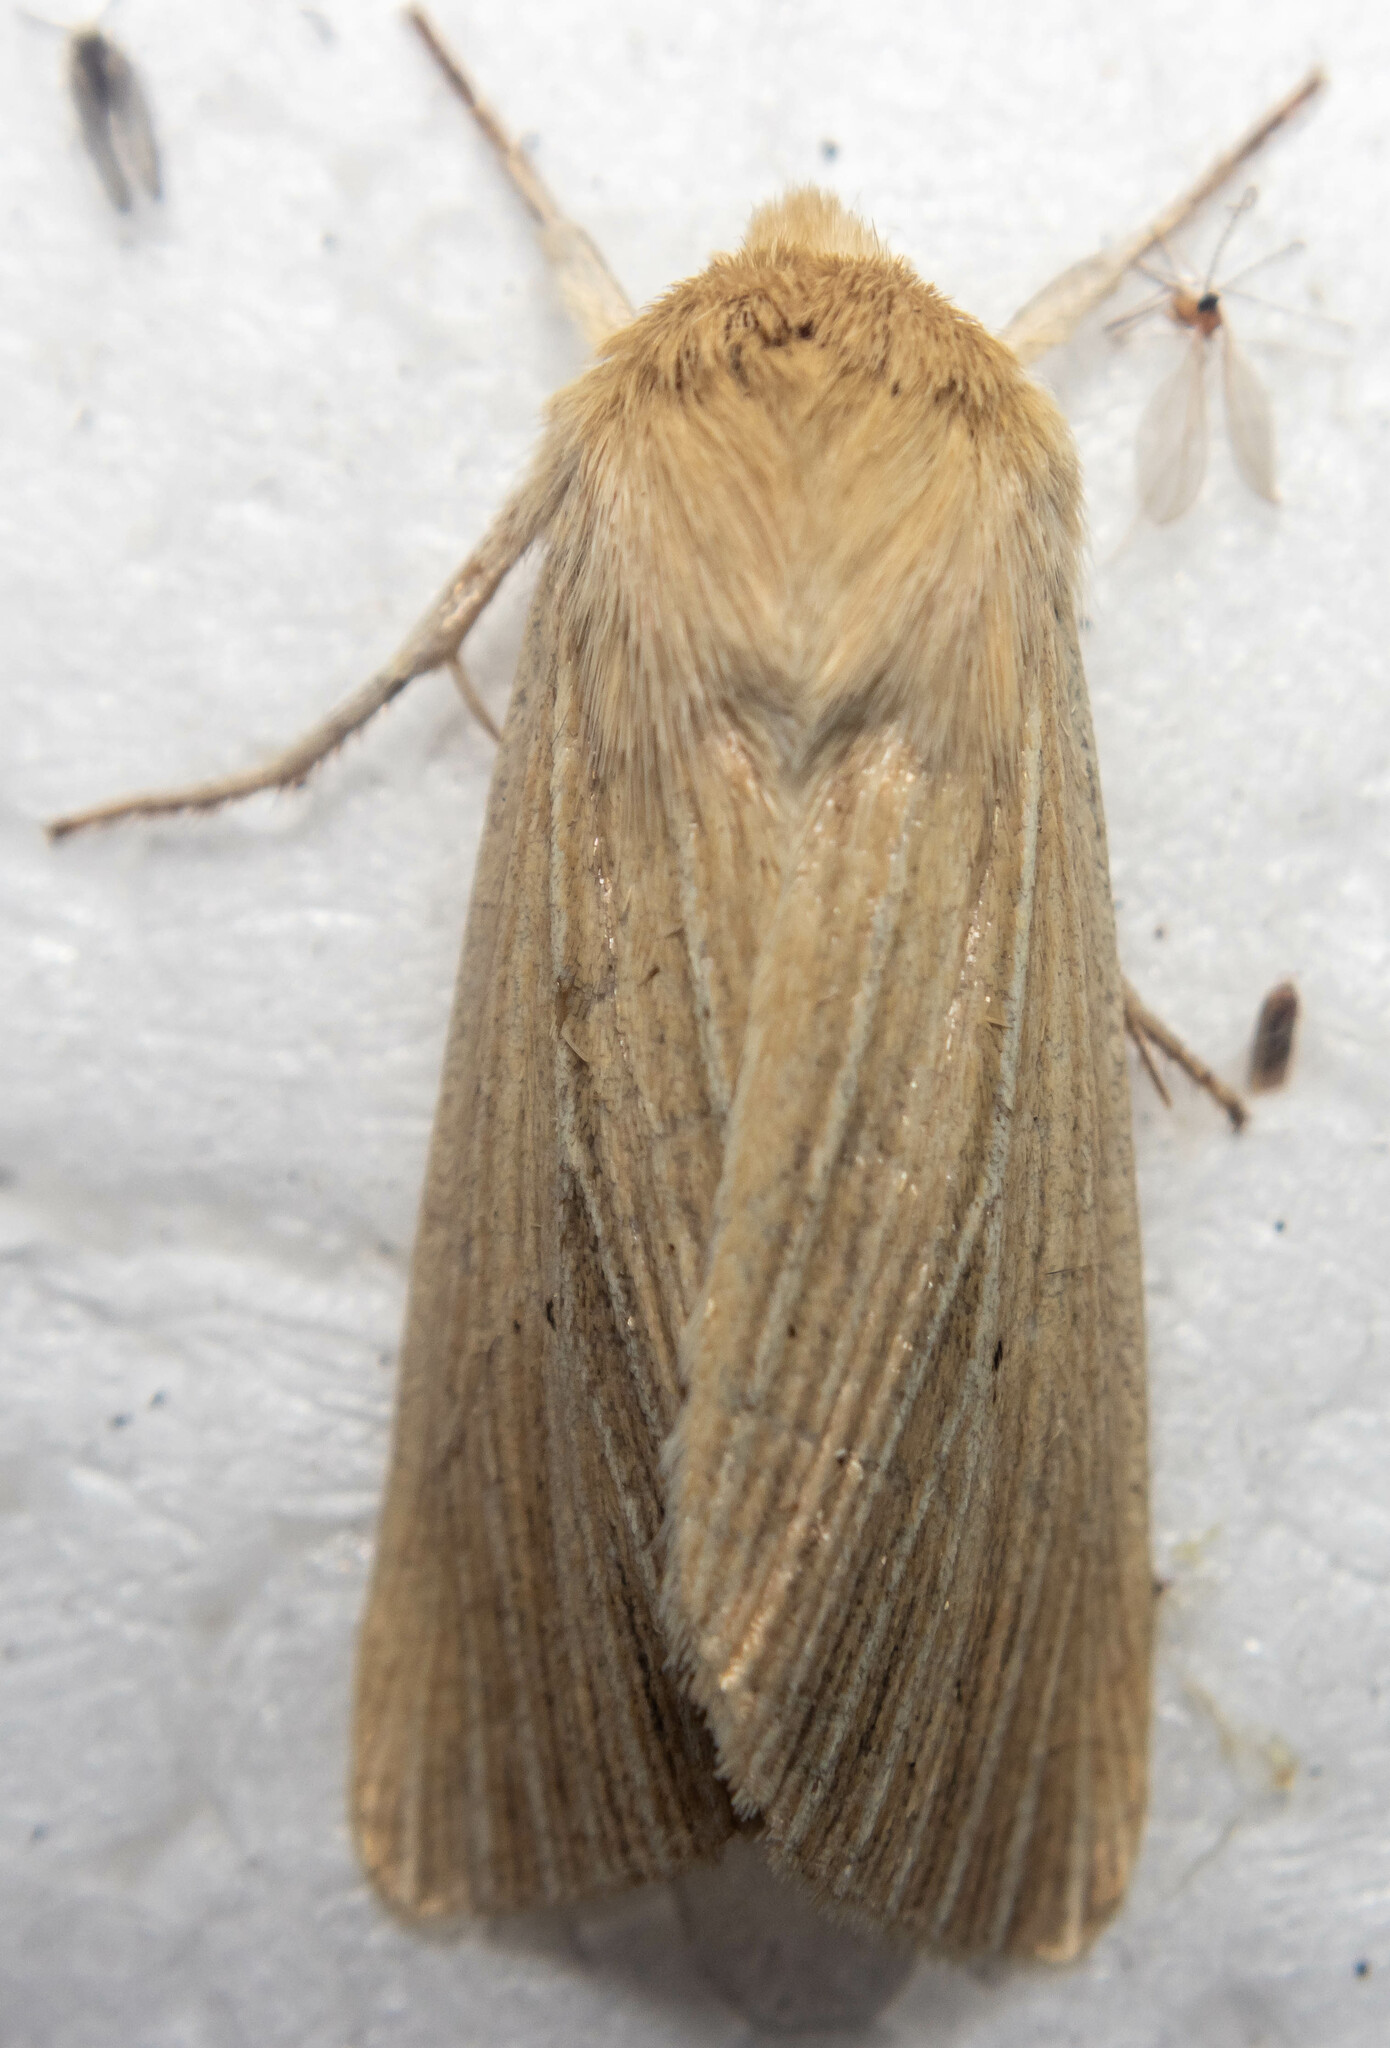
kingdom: Animalia
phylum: Arthropoda
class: Insecta
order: Lepidoptera
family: Noctuidae
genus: Mythimna
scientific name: Mythimna pallens
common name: Common wainscot
